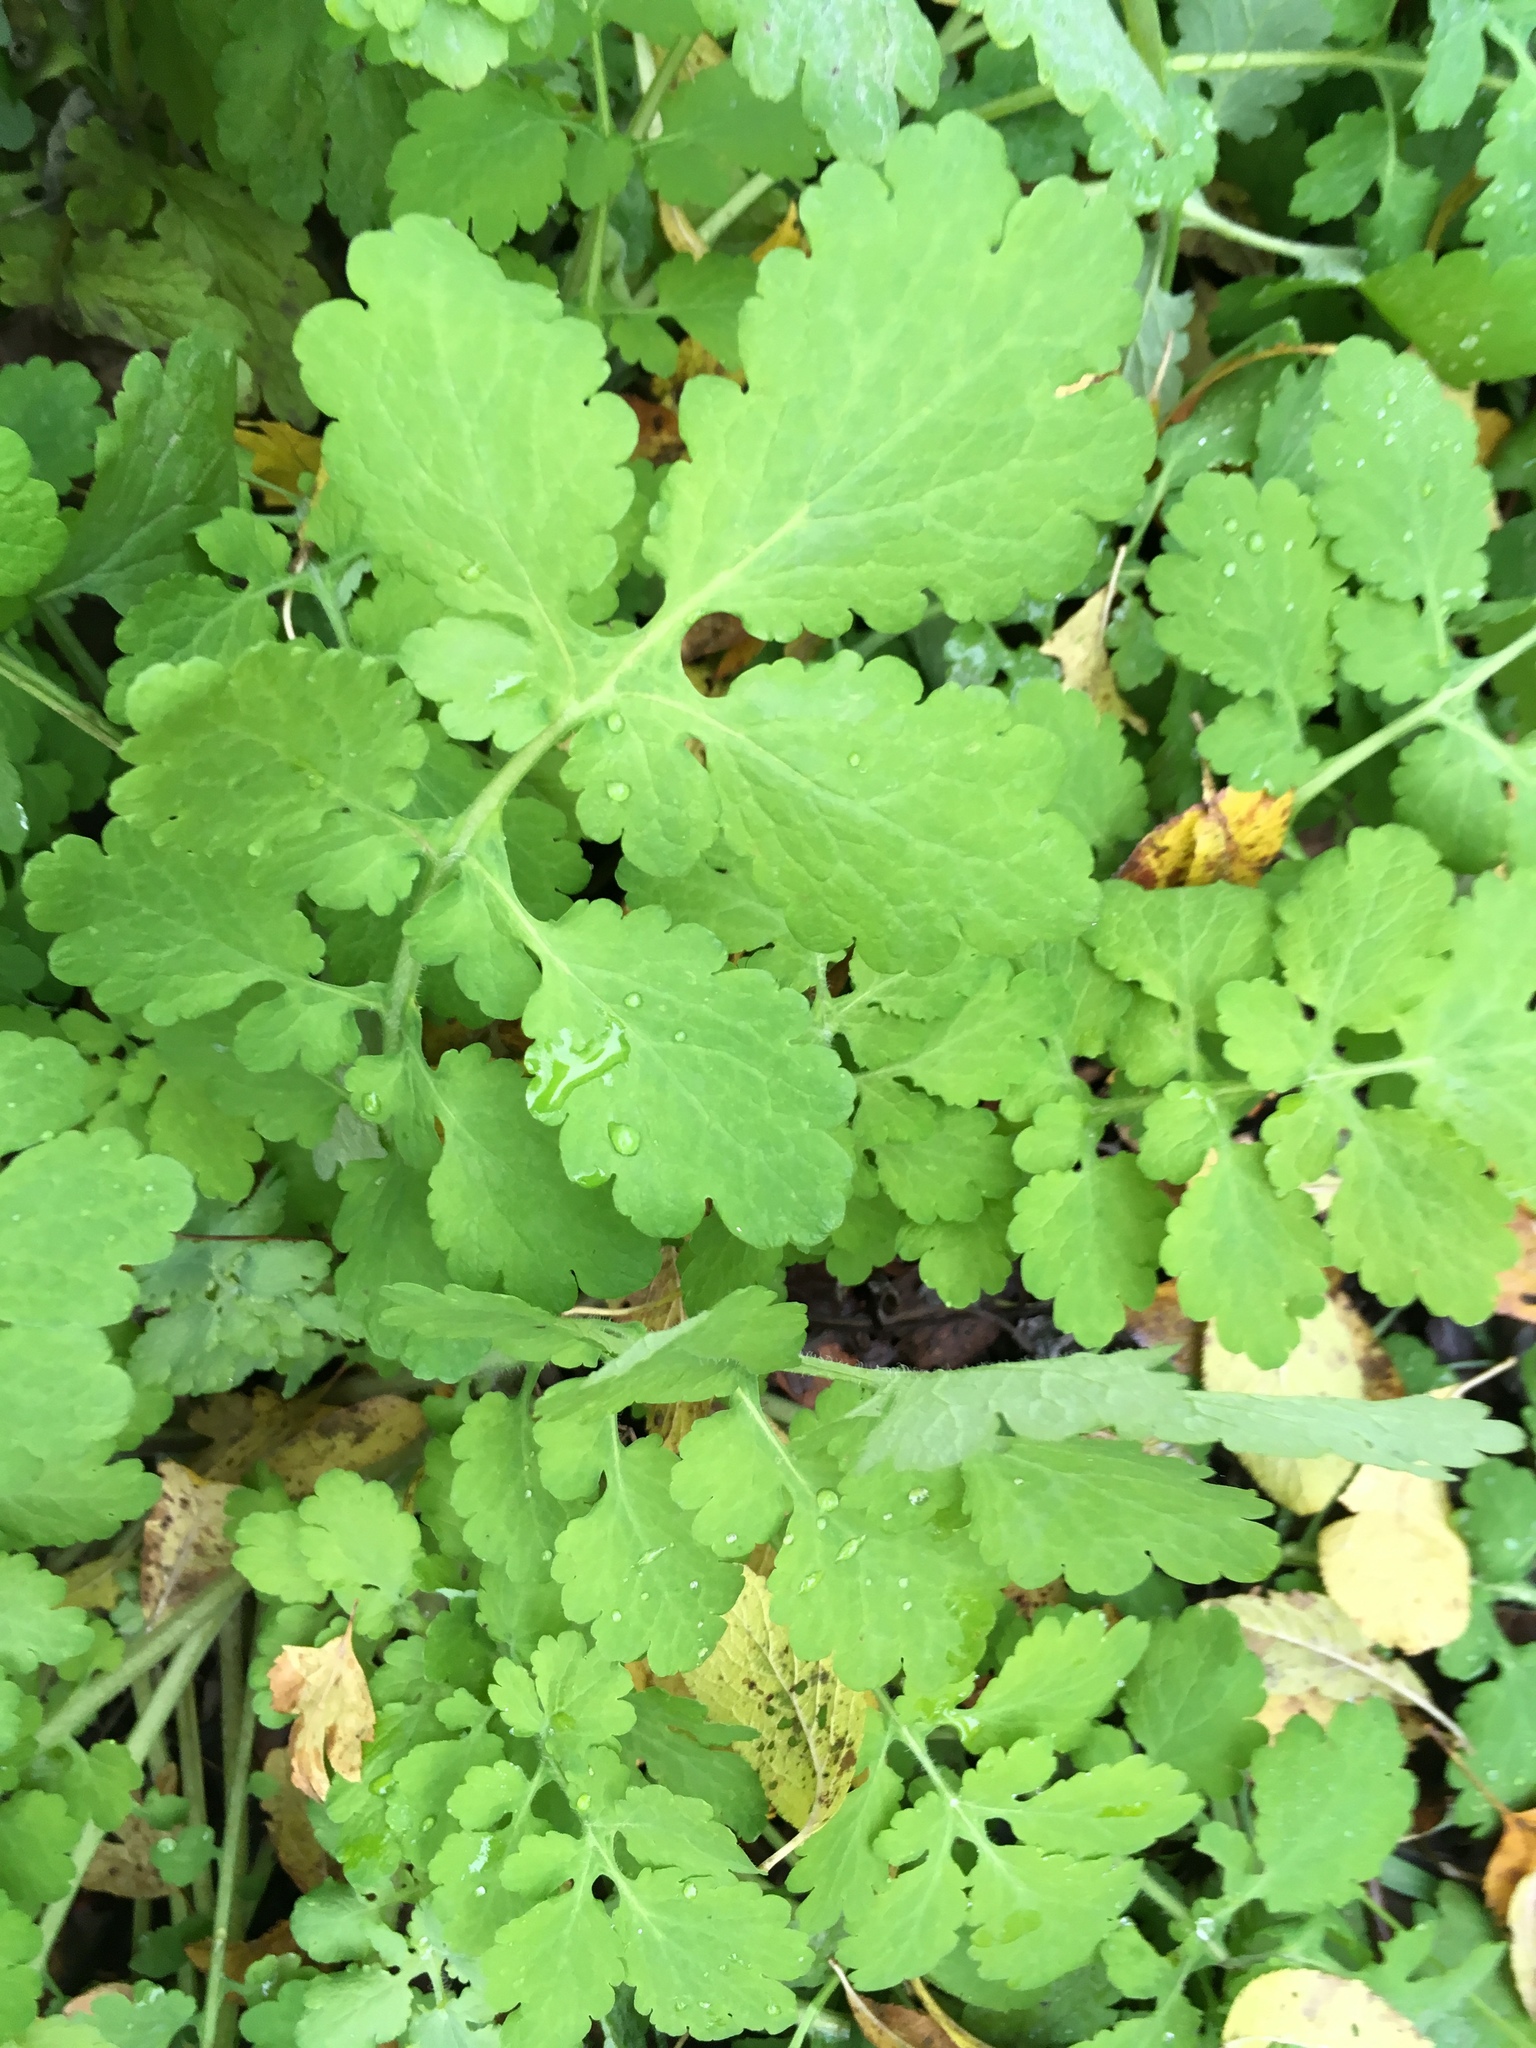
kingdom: Plantae
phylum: Tracheophyta
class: Magnoliopsida
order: Ranunculales
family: Papaveraceae
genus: Chelidonium
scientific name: Chelidonium majus
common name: Greater celandine
